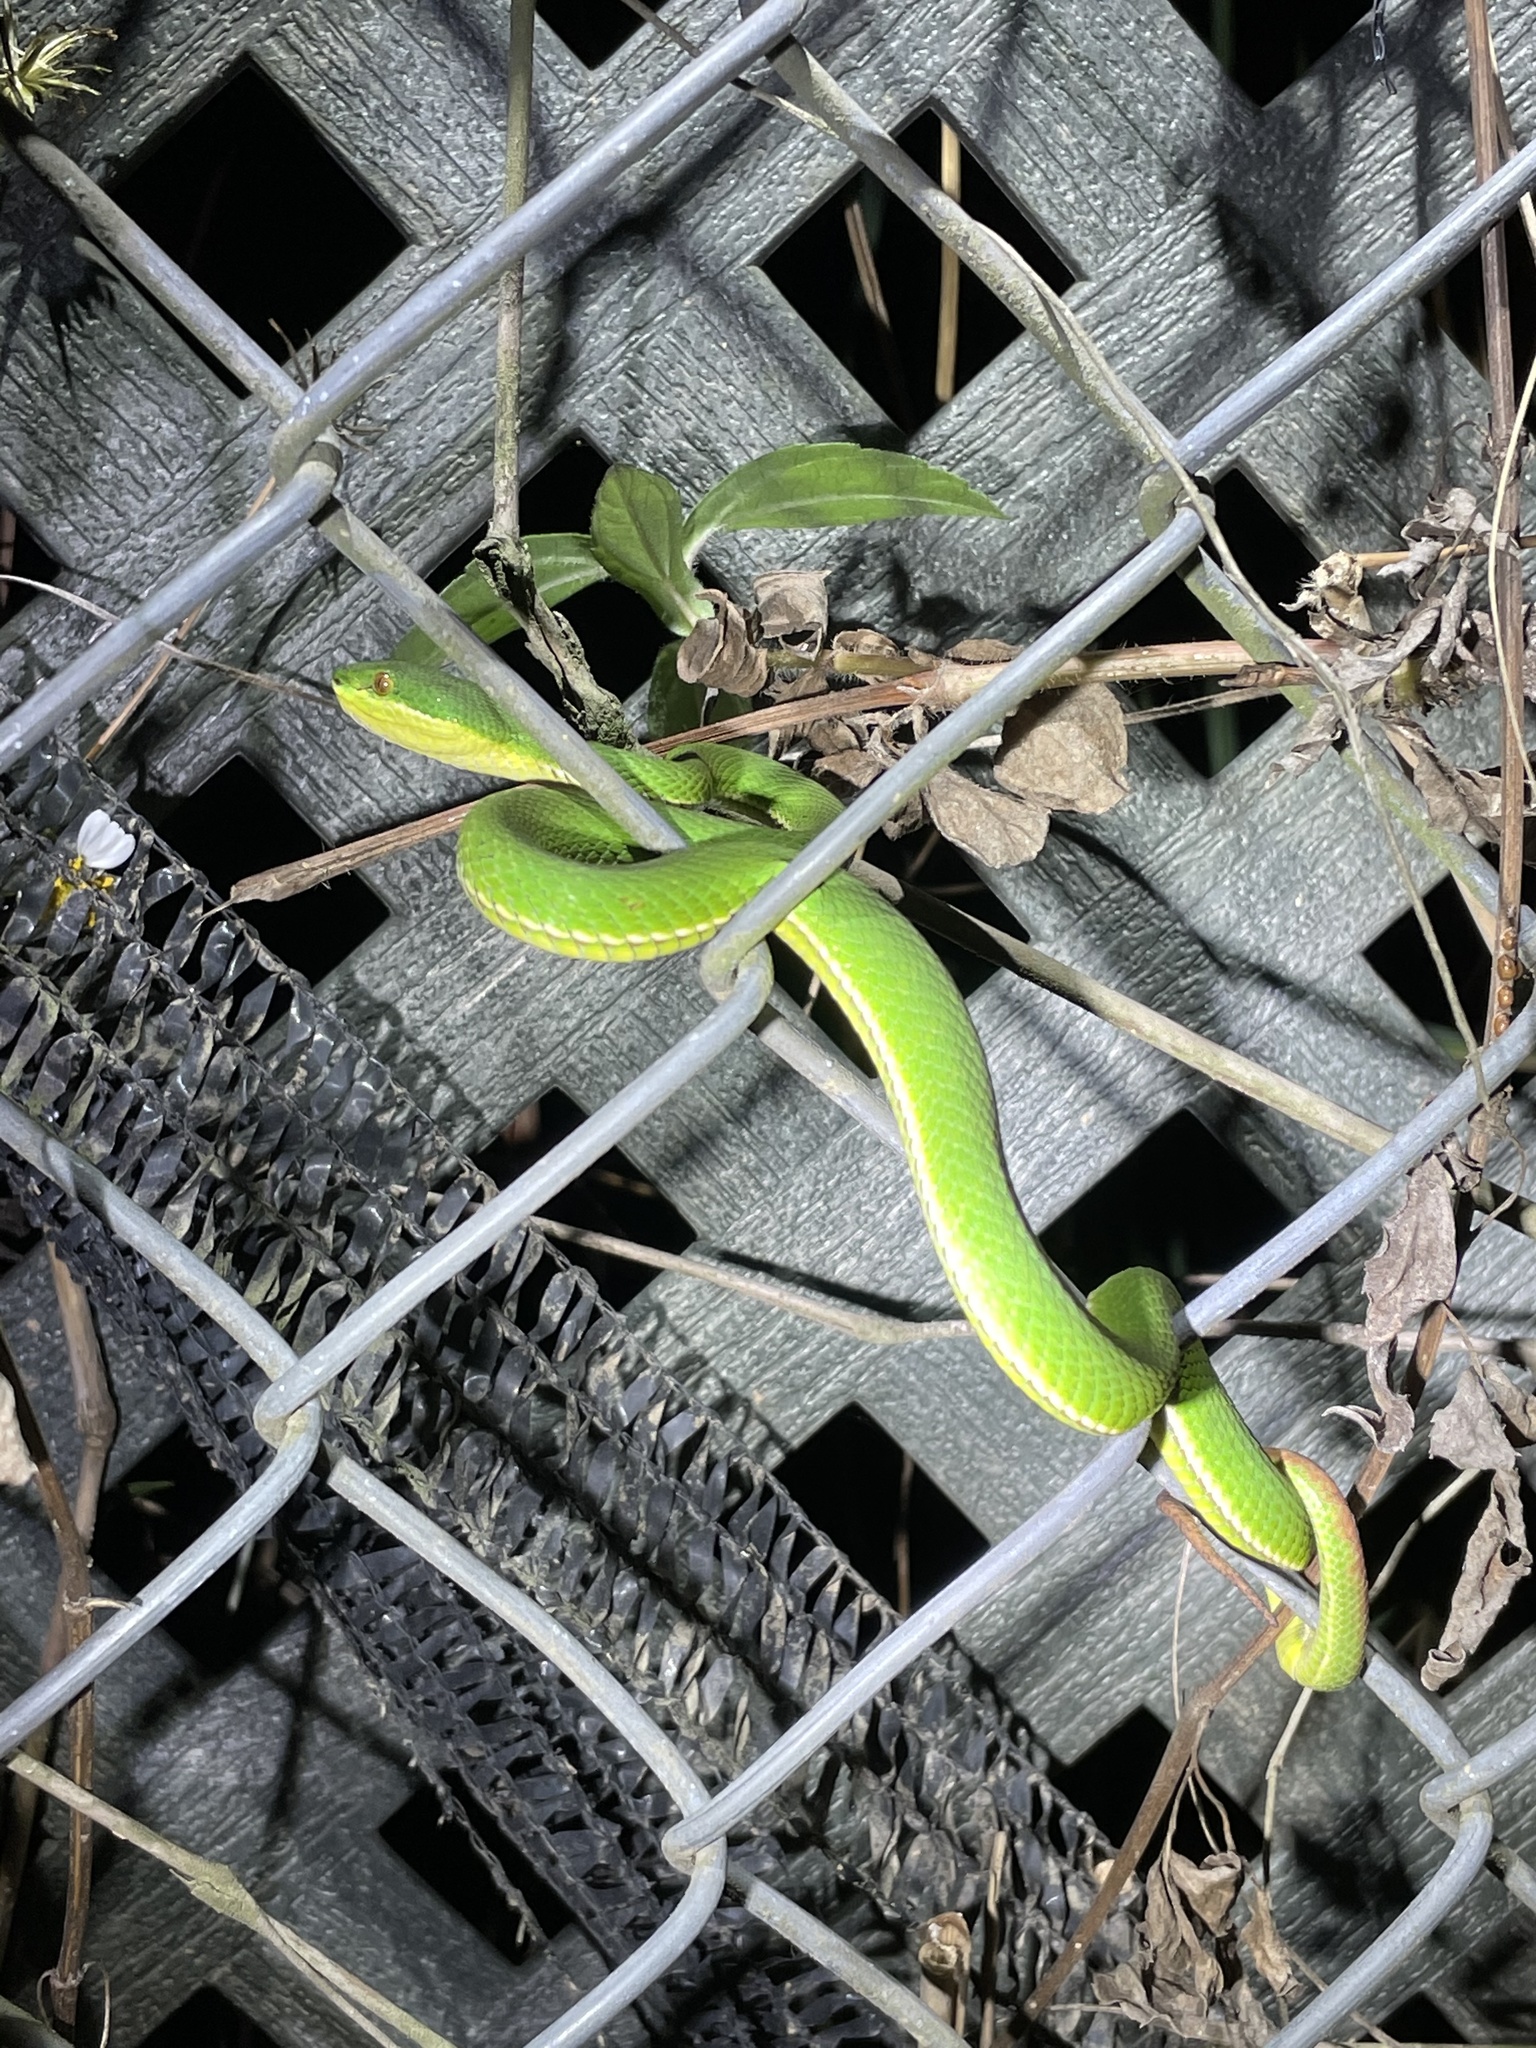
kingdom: Animalia
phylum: Chordata
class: Squamata
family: Viperidae
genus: Trimeresurus
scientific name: Trimeresurus albolabris
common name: White-lipped pitviper
